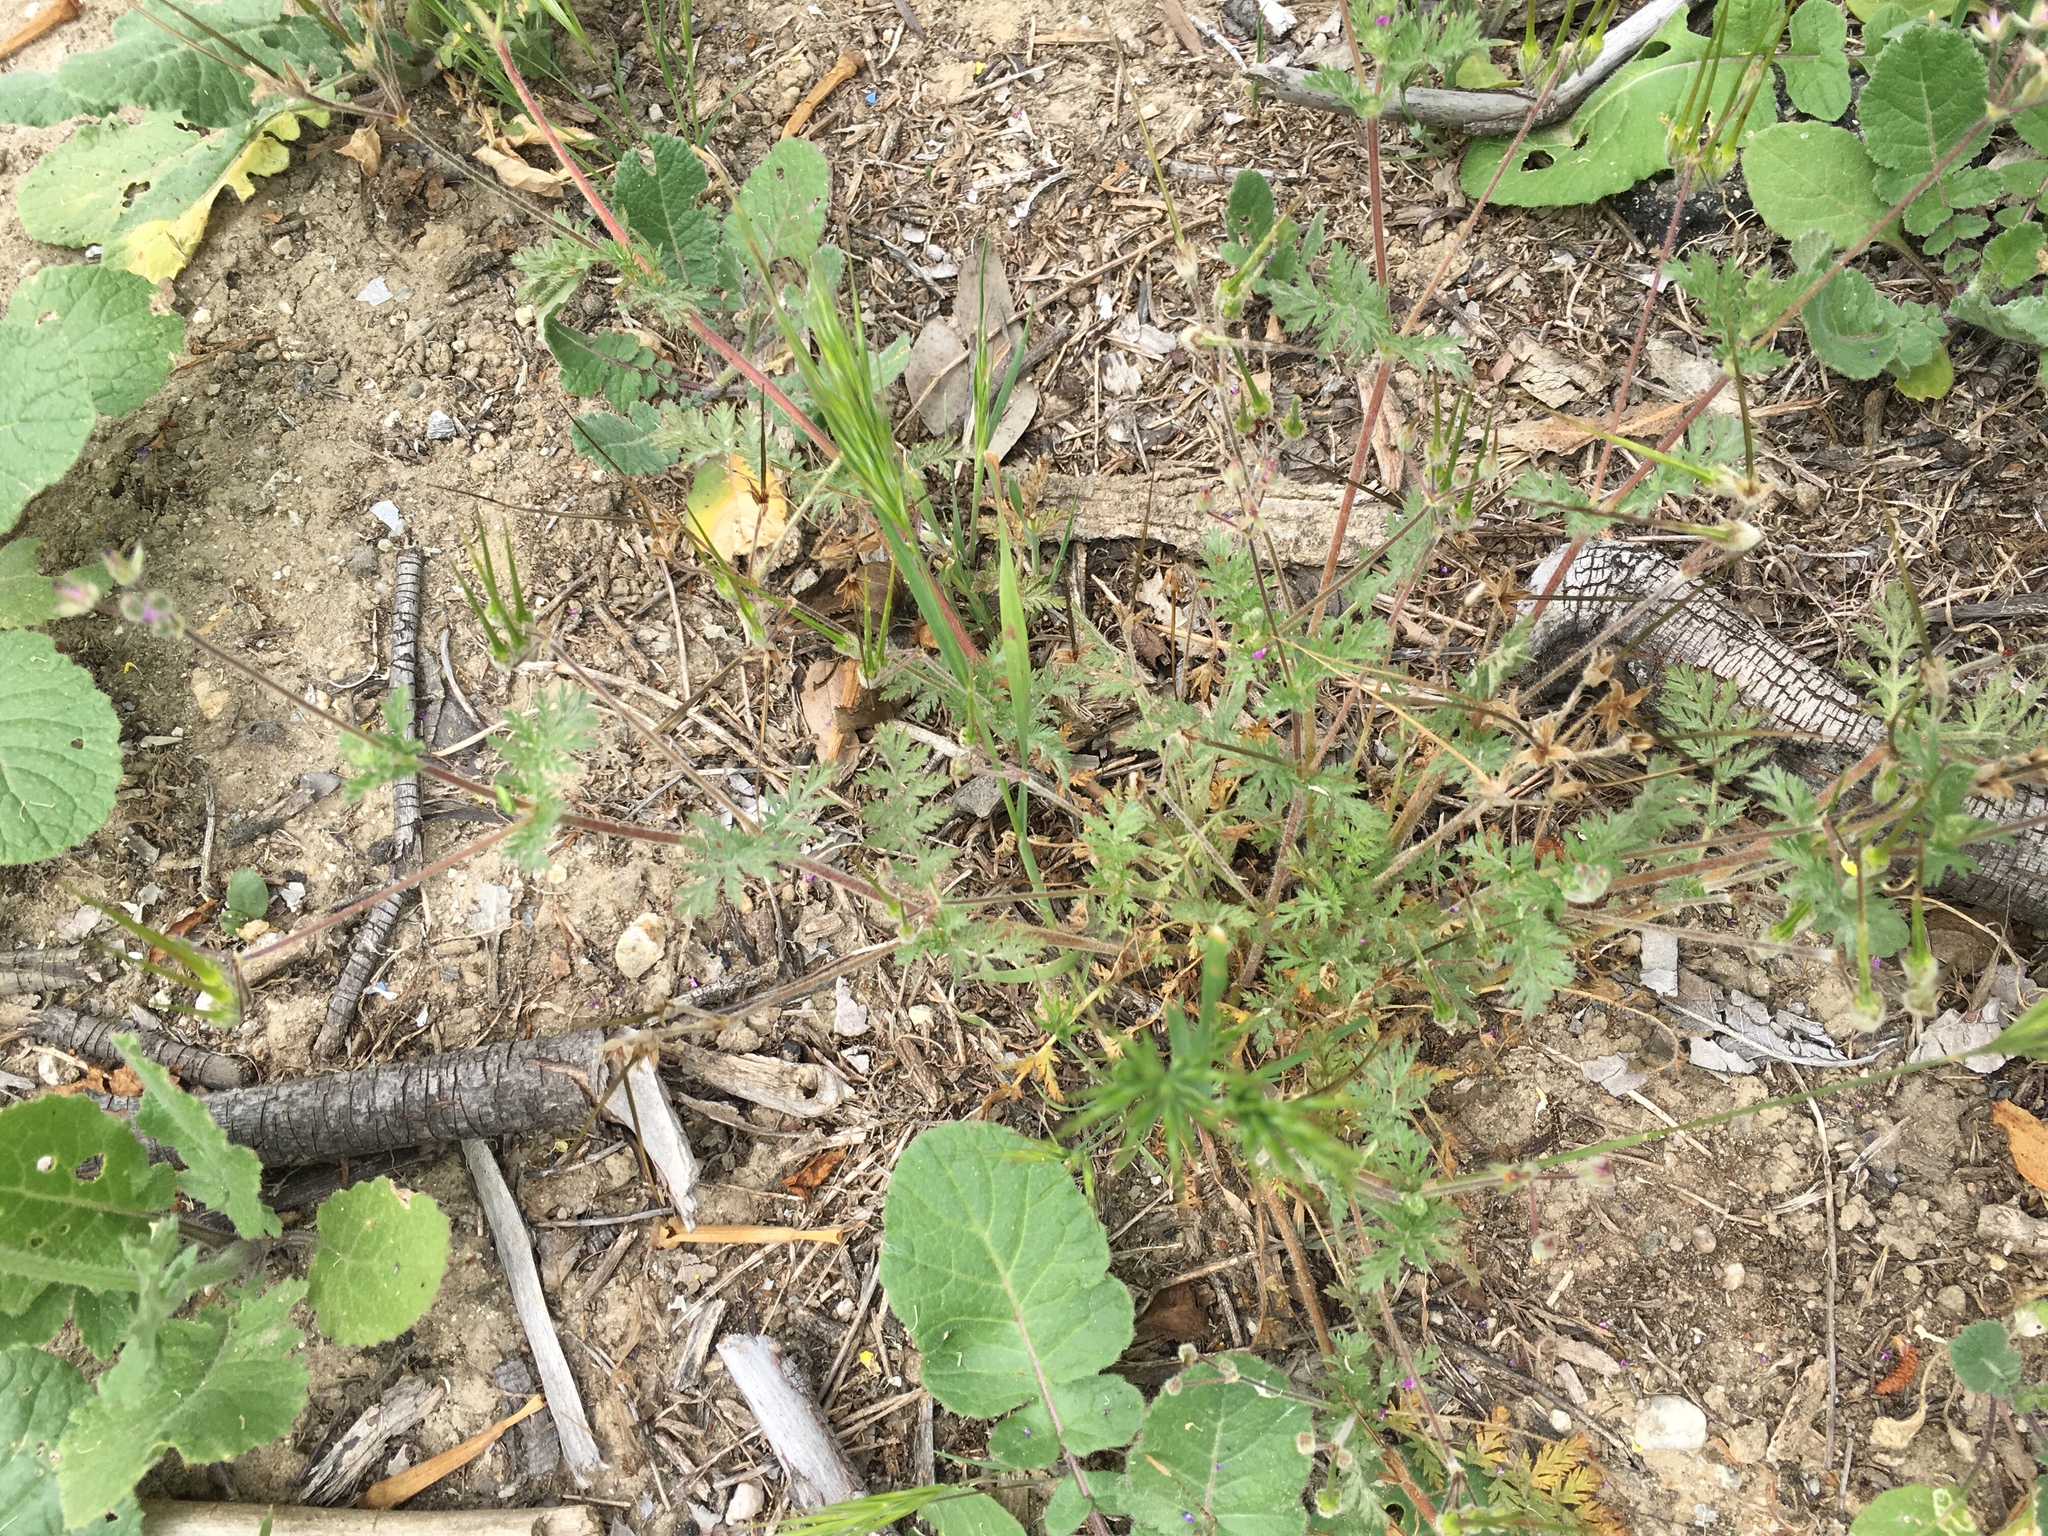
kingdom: Plantae
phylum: Tracheophyta
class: Magnoliopsida
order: Geraniales
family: Geraniaceae
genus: Erodium
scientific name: Erodium cicutarium
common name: Common stork's-bill
